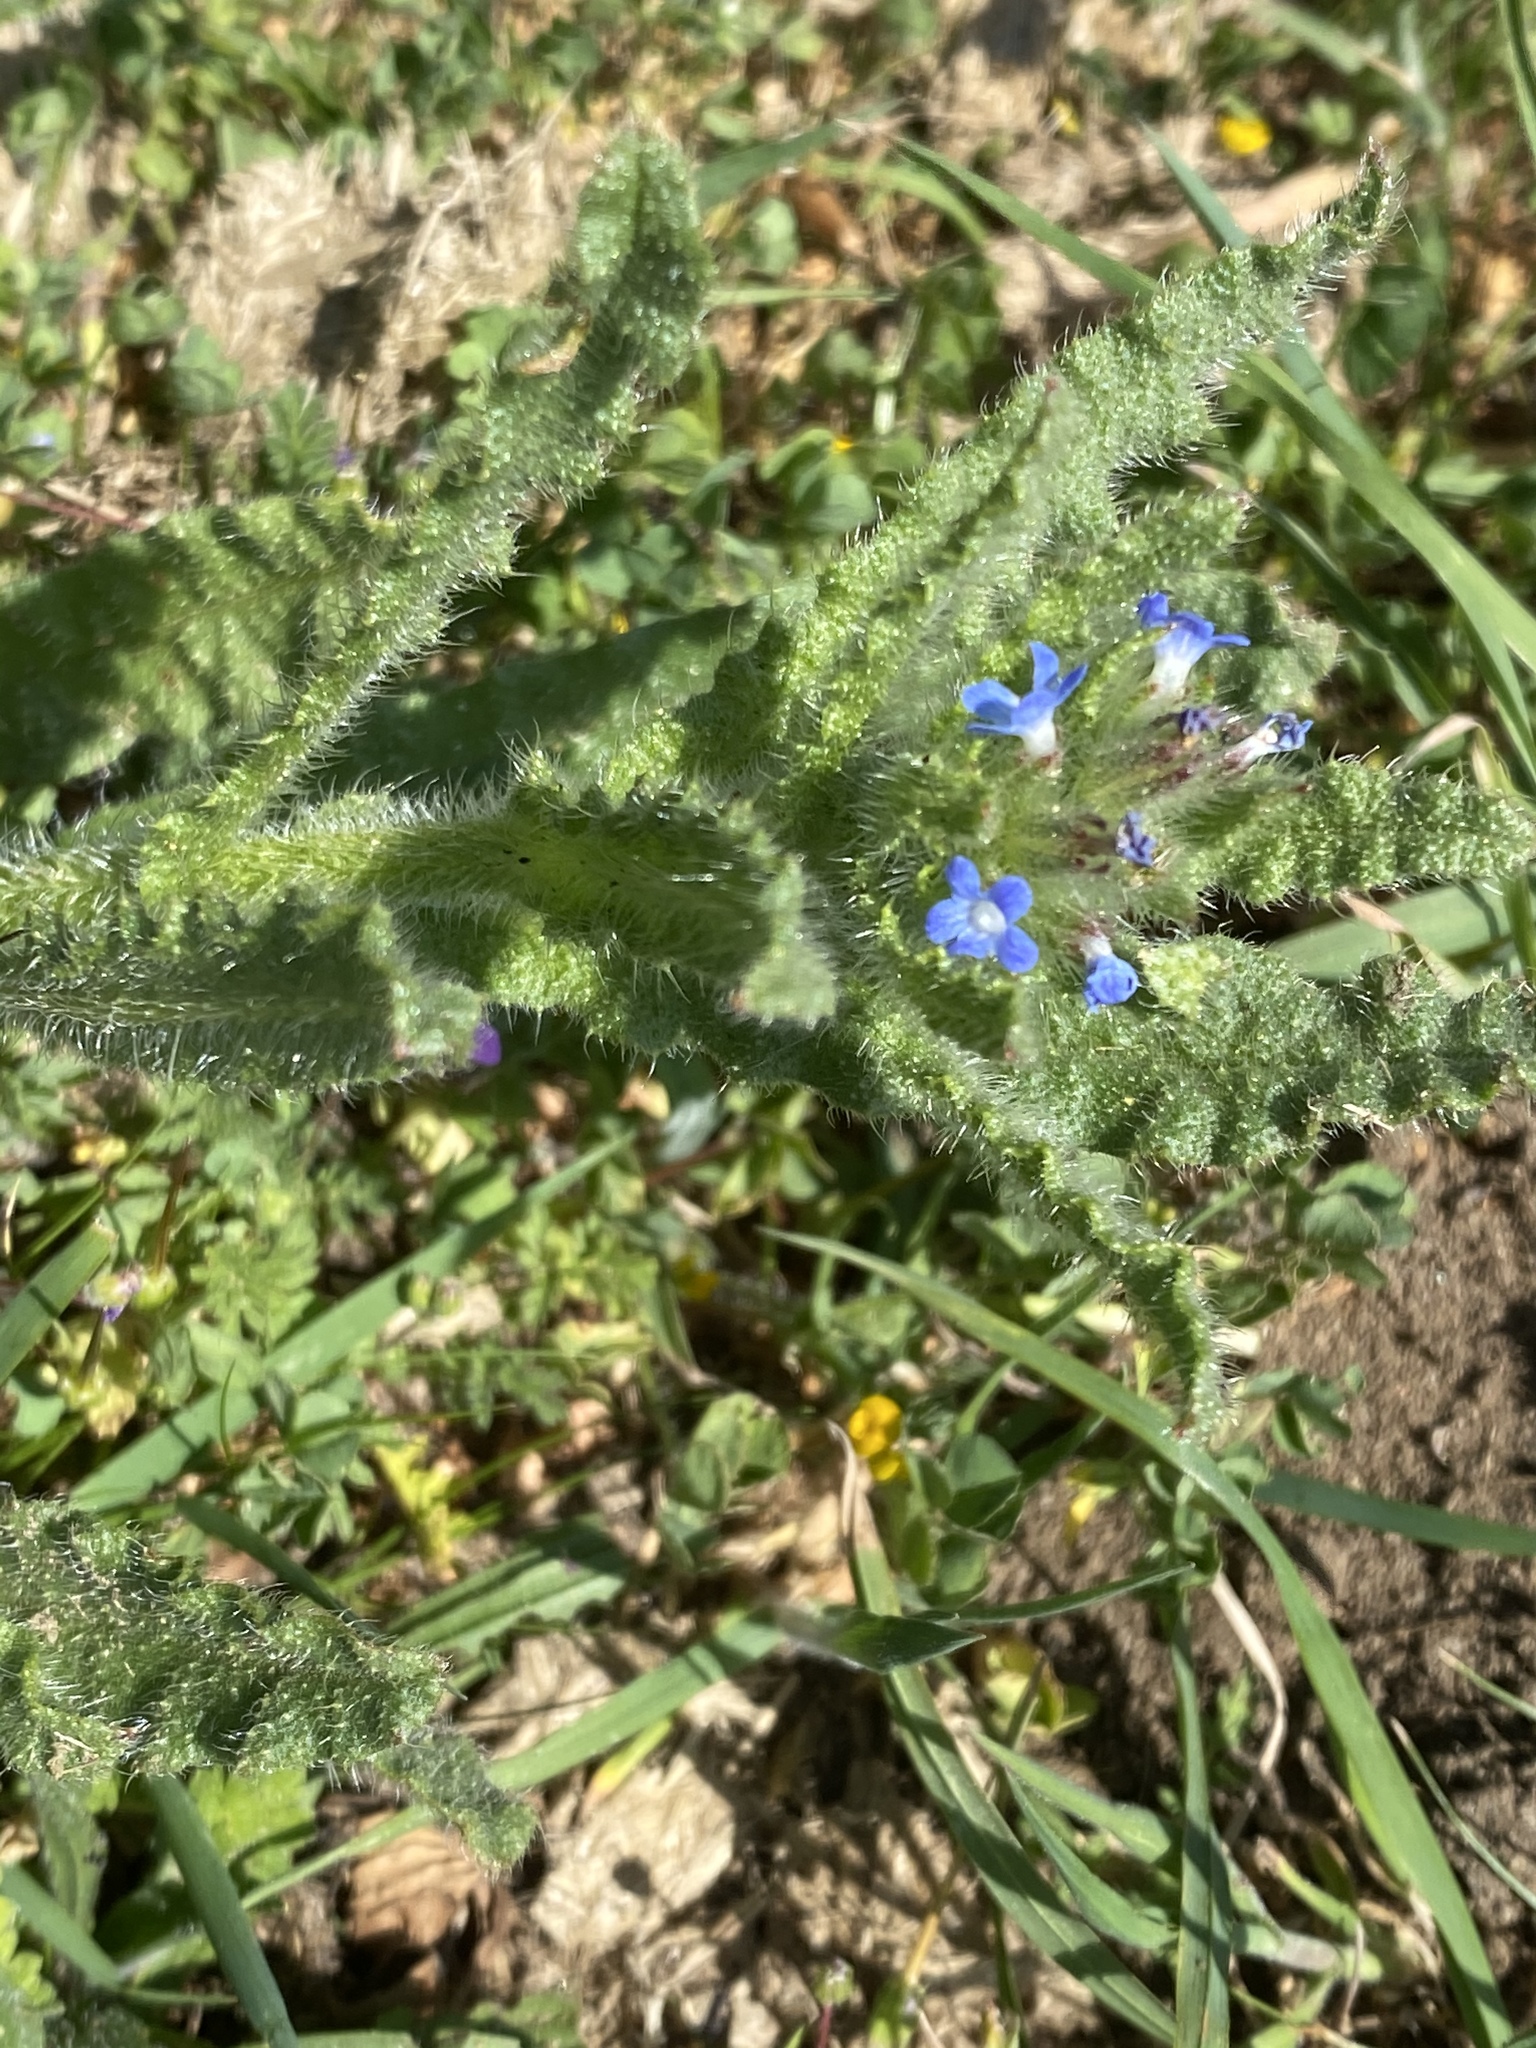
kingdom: Plantae
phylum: Tracheophyta
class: Magnoliopsida
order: Boraginales
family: Boraginaceae
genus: Lycopsis
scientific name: Lycopsis arvensis
